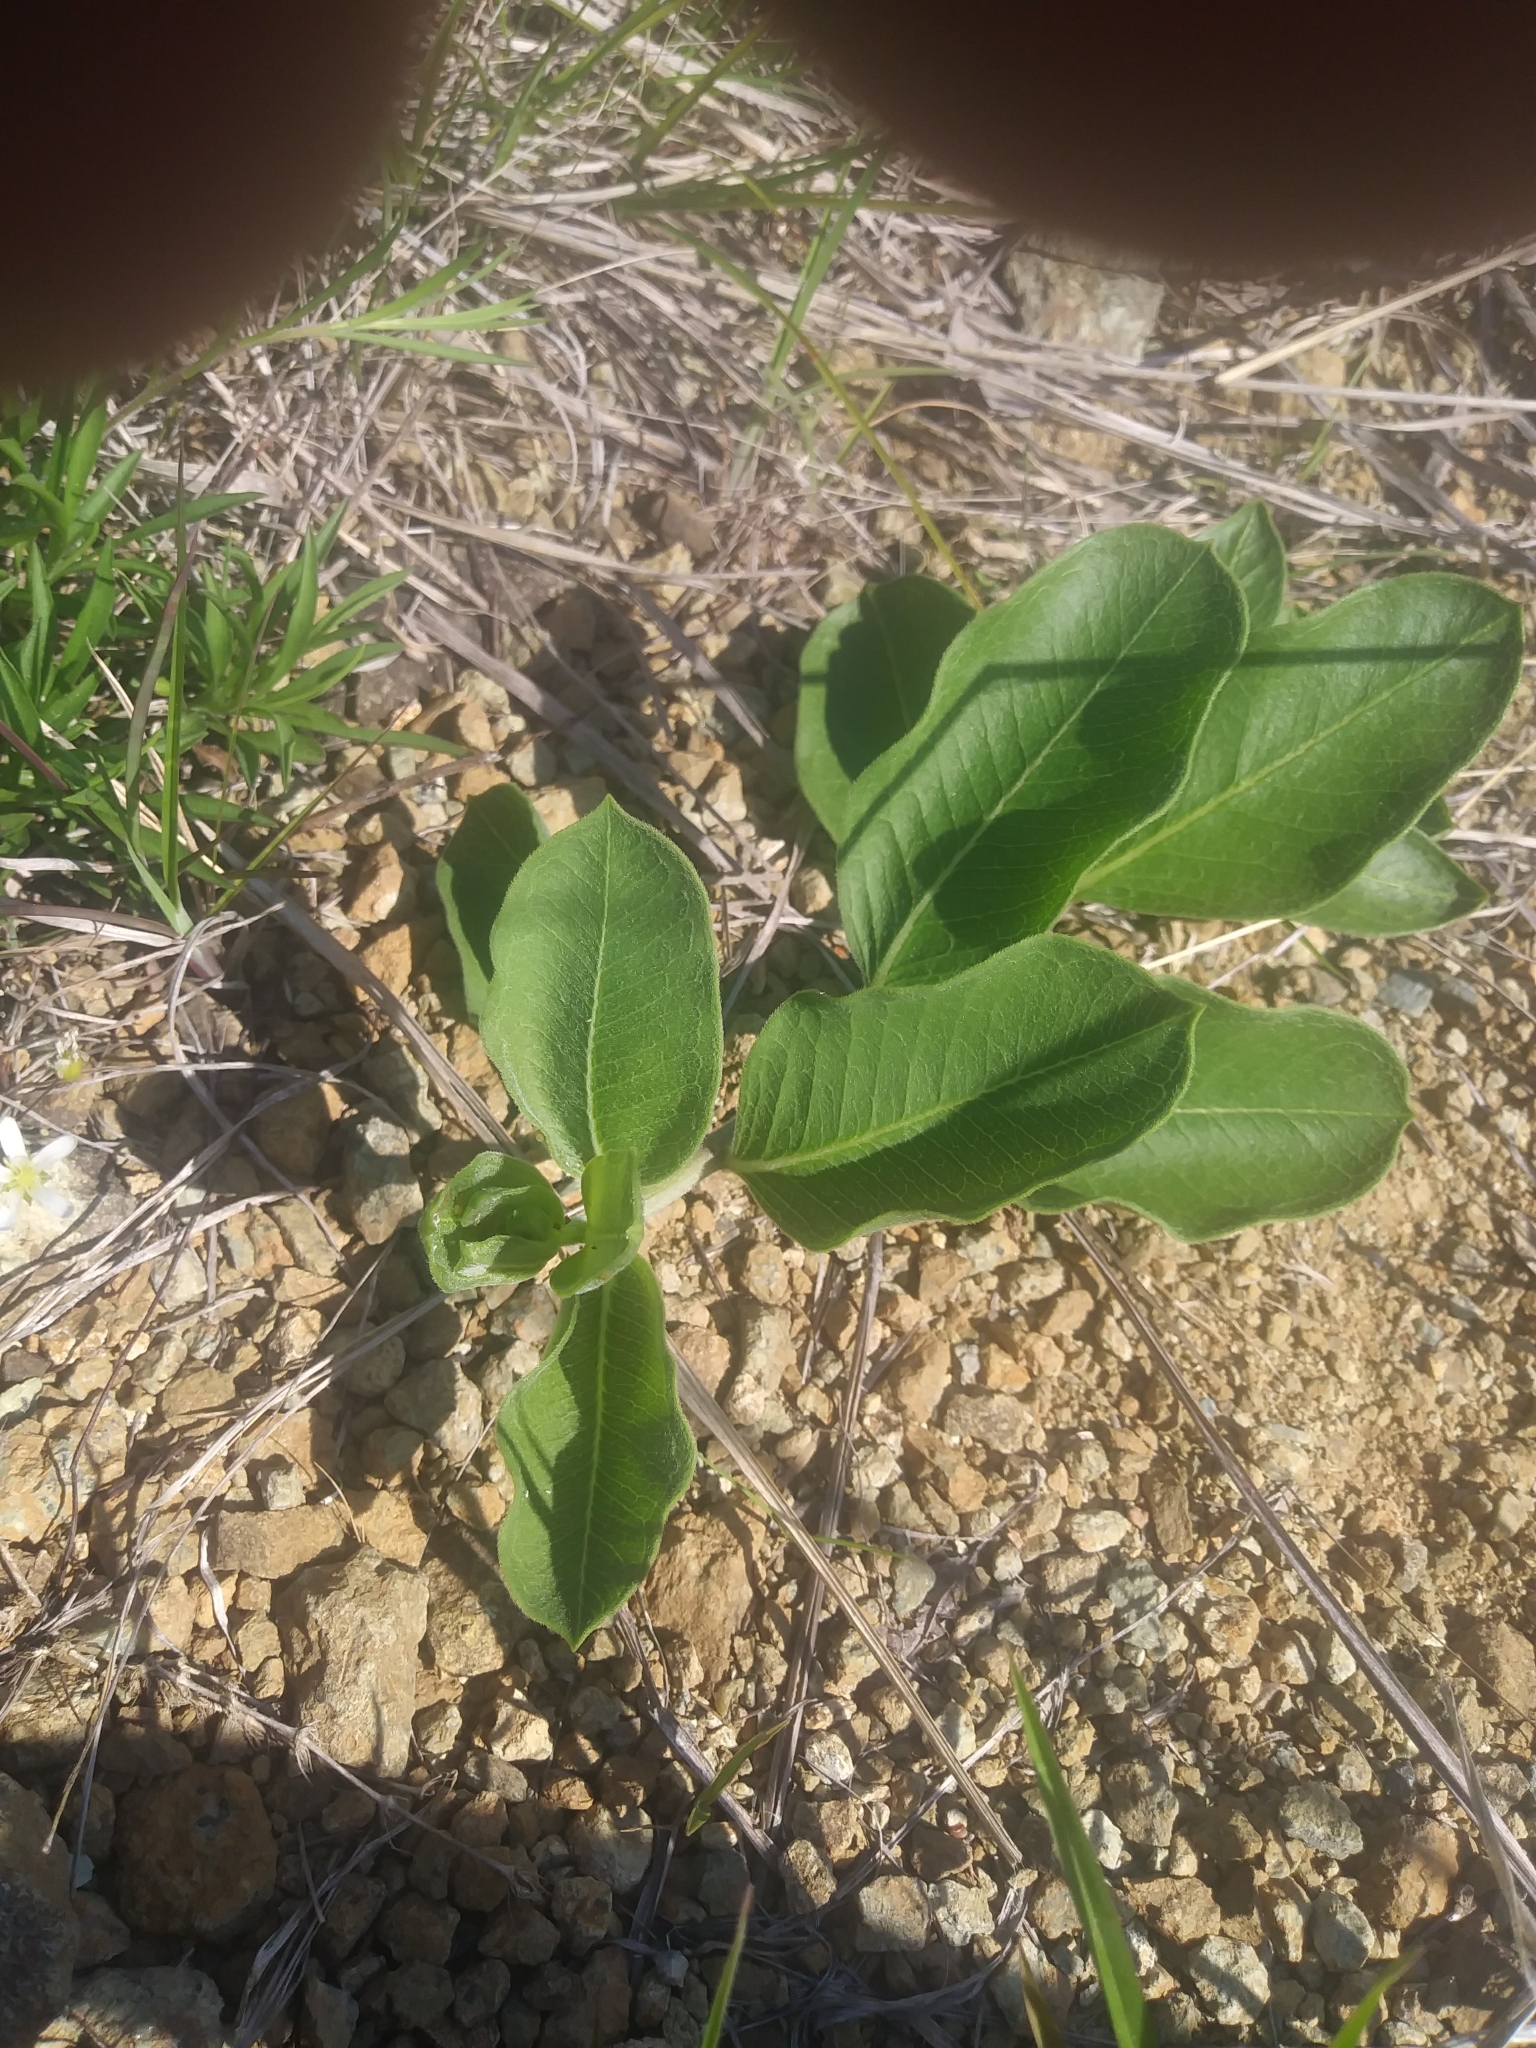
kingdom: Plantae
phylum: Tracheophyta
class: Magnoliopsida
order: Gentianales
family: Apocynaceae
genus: Asclepias
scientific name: Asclepias viridiflora
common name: Green comet milkweed
